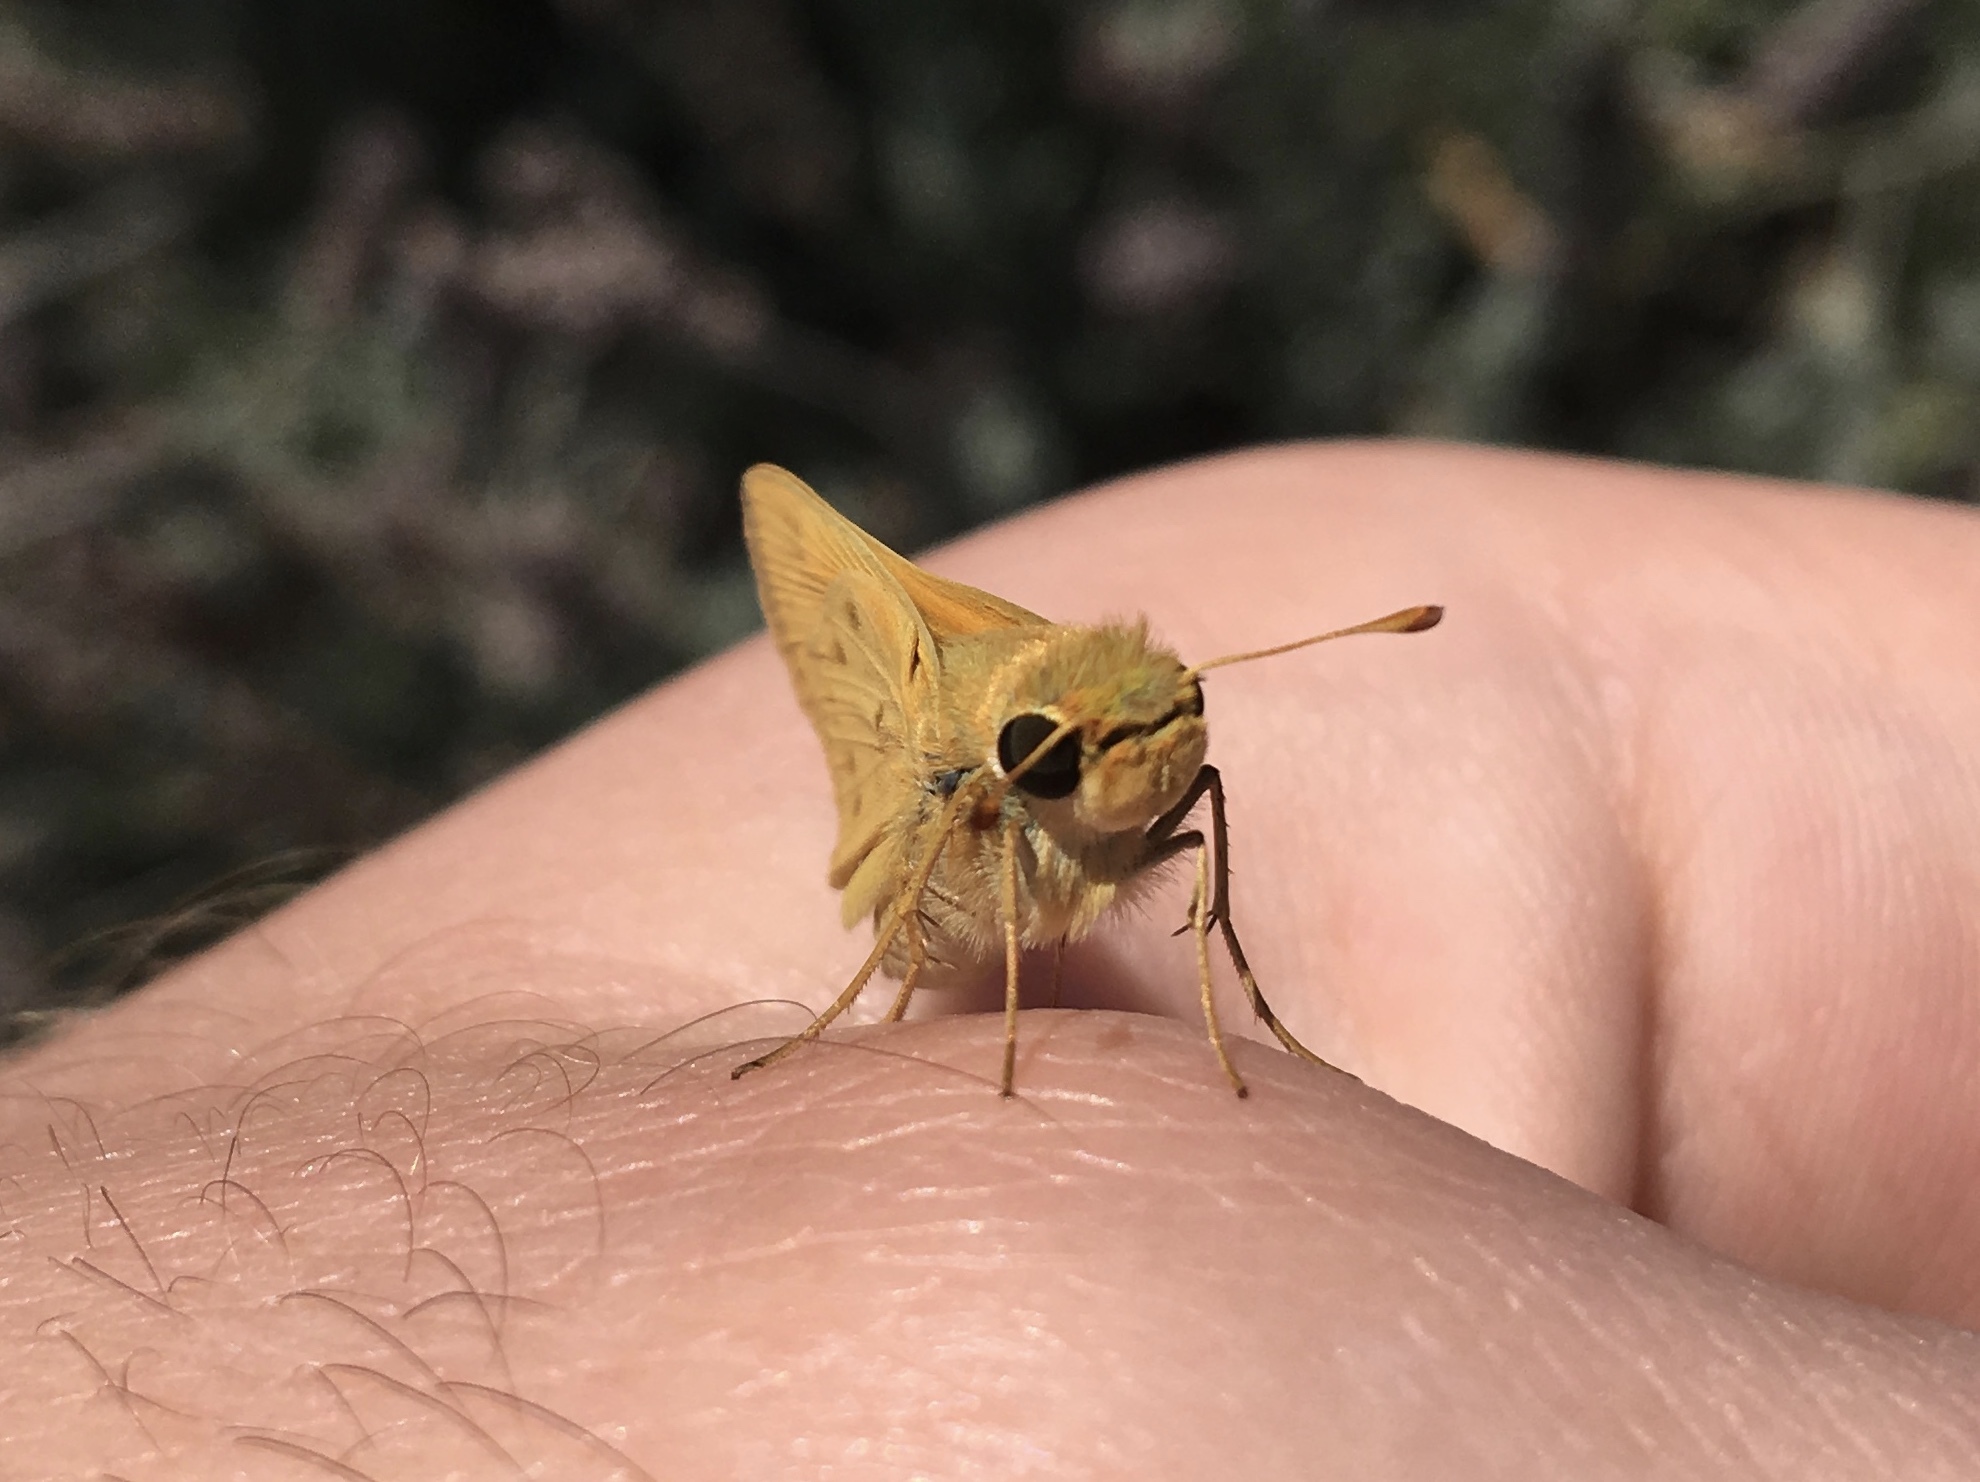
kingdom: Animalia
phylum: Arthropoda
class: Insecta
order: Lepidoptera
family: Hesperiidae
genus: Hylephila
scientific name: Hylephila phyleus
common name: Fiery skipper
